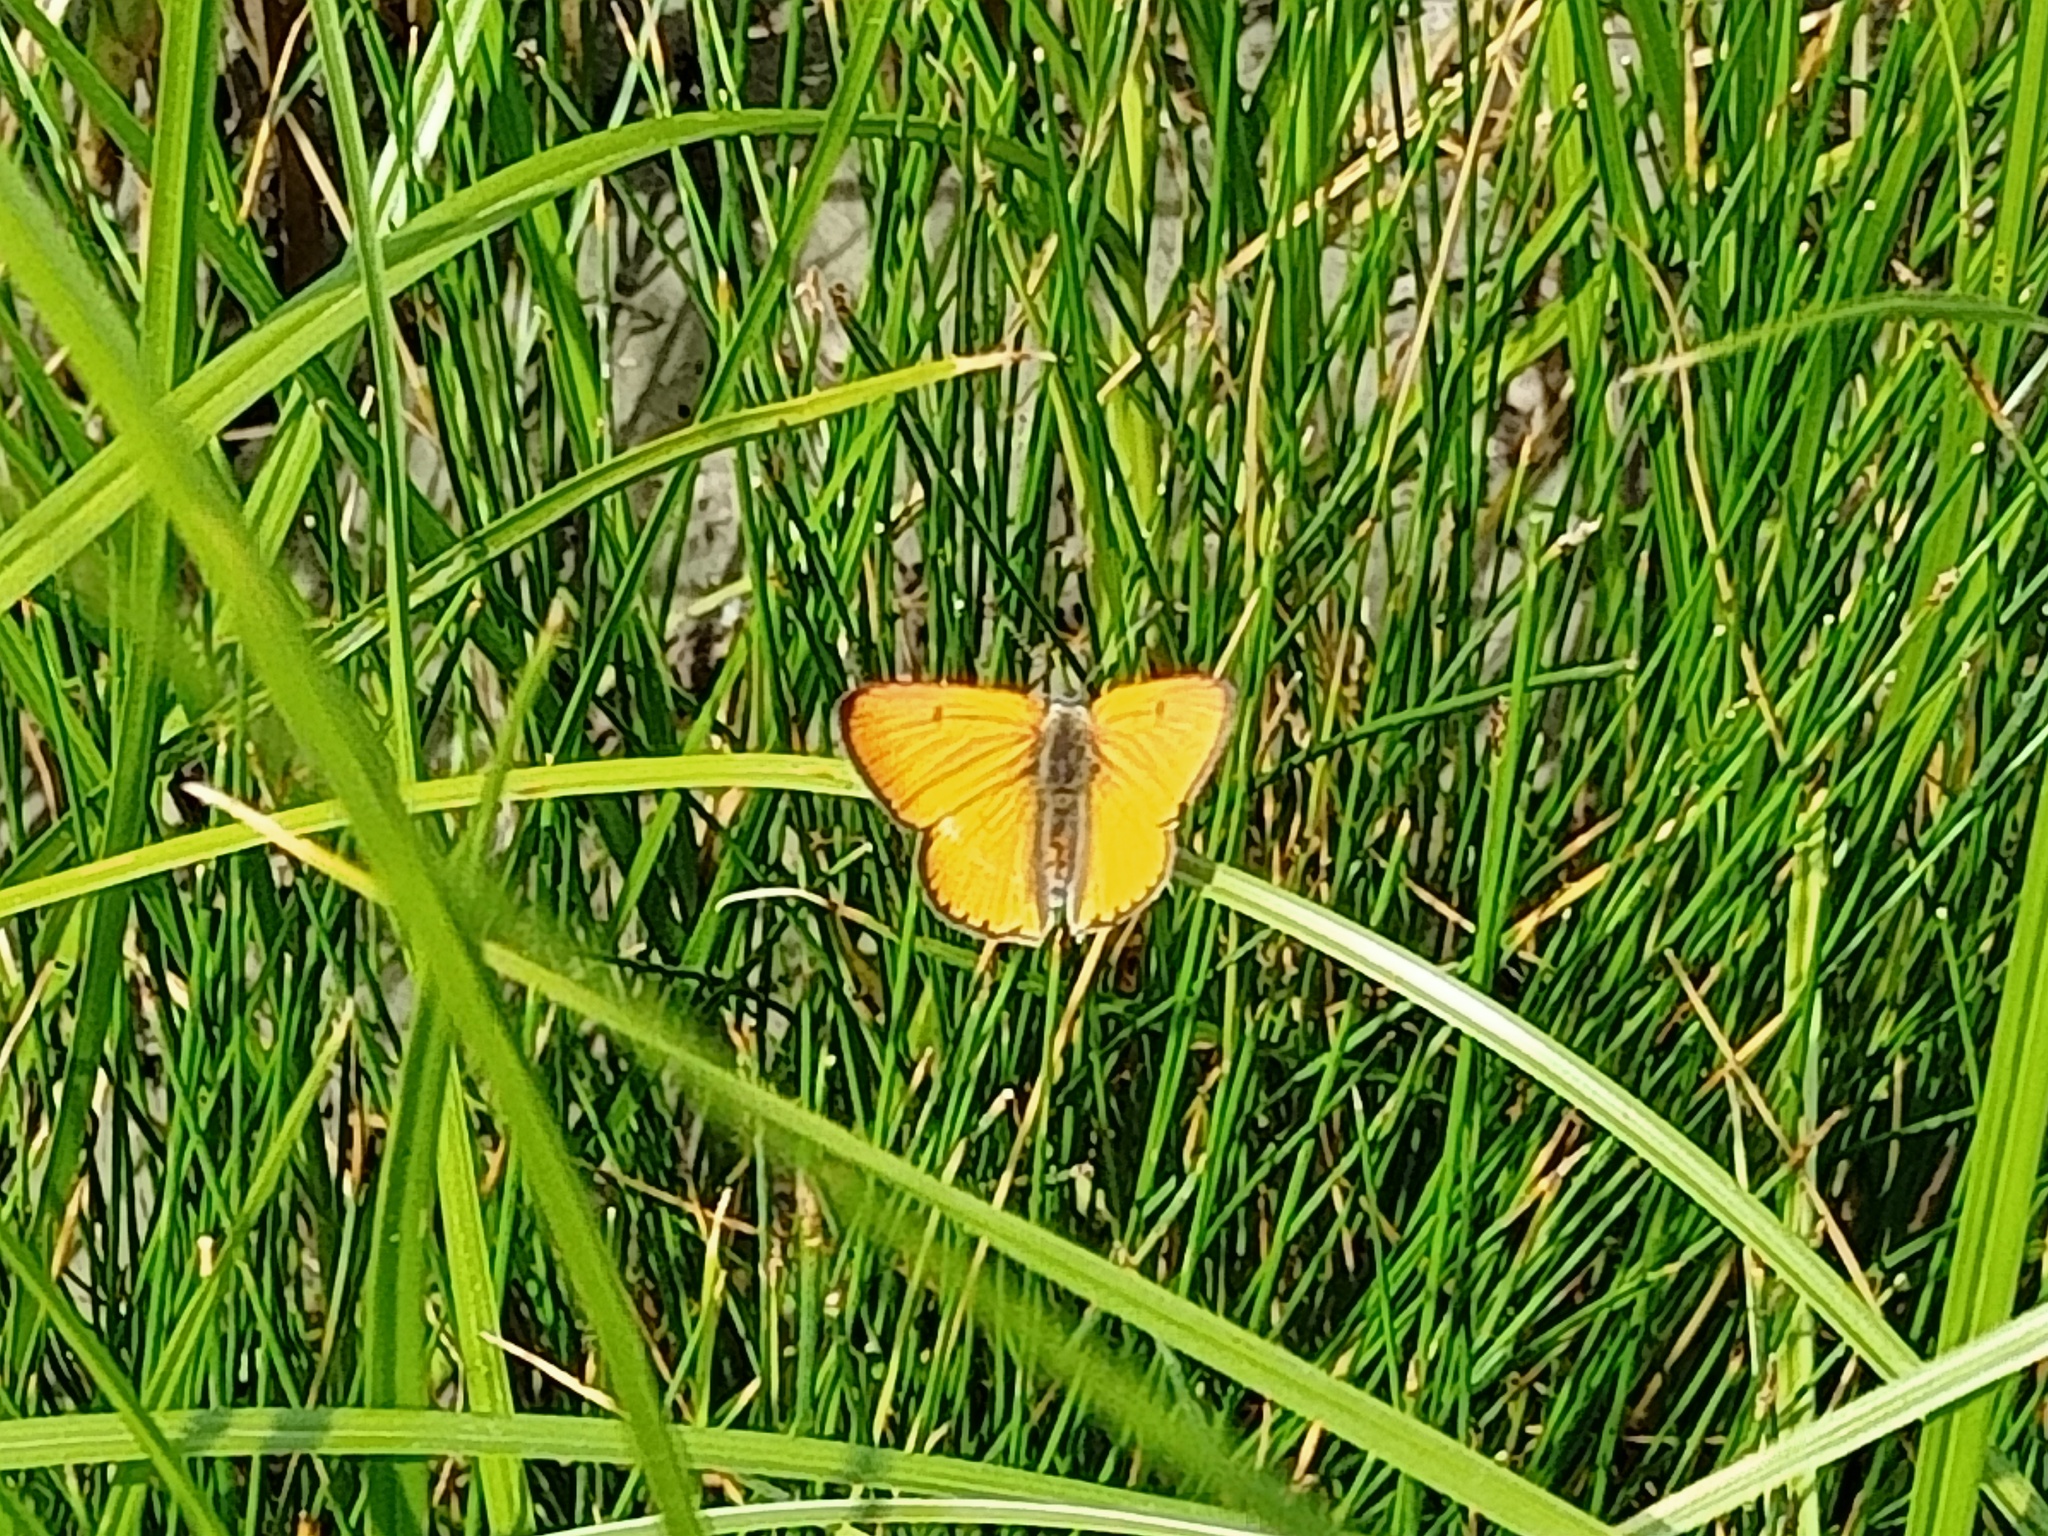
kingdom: Animalia
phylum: Arthropoda
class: Insecta
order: Lepidoptera
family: Lycaenidae
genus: Lycaena
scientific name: Lycaena dispar
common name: Large copper
